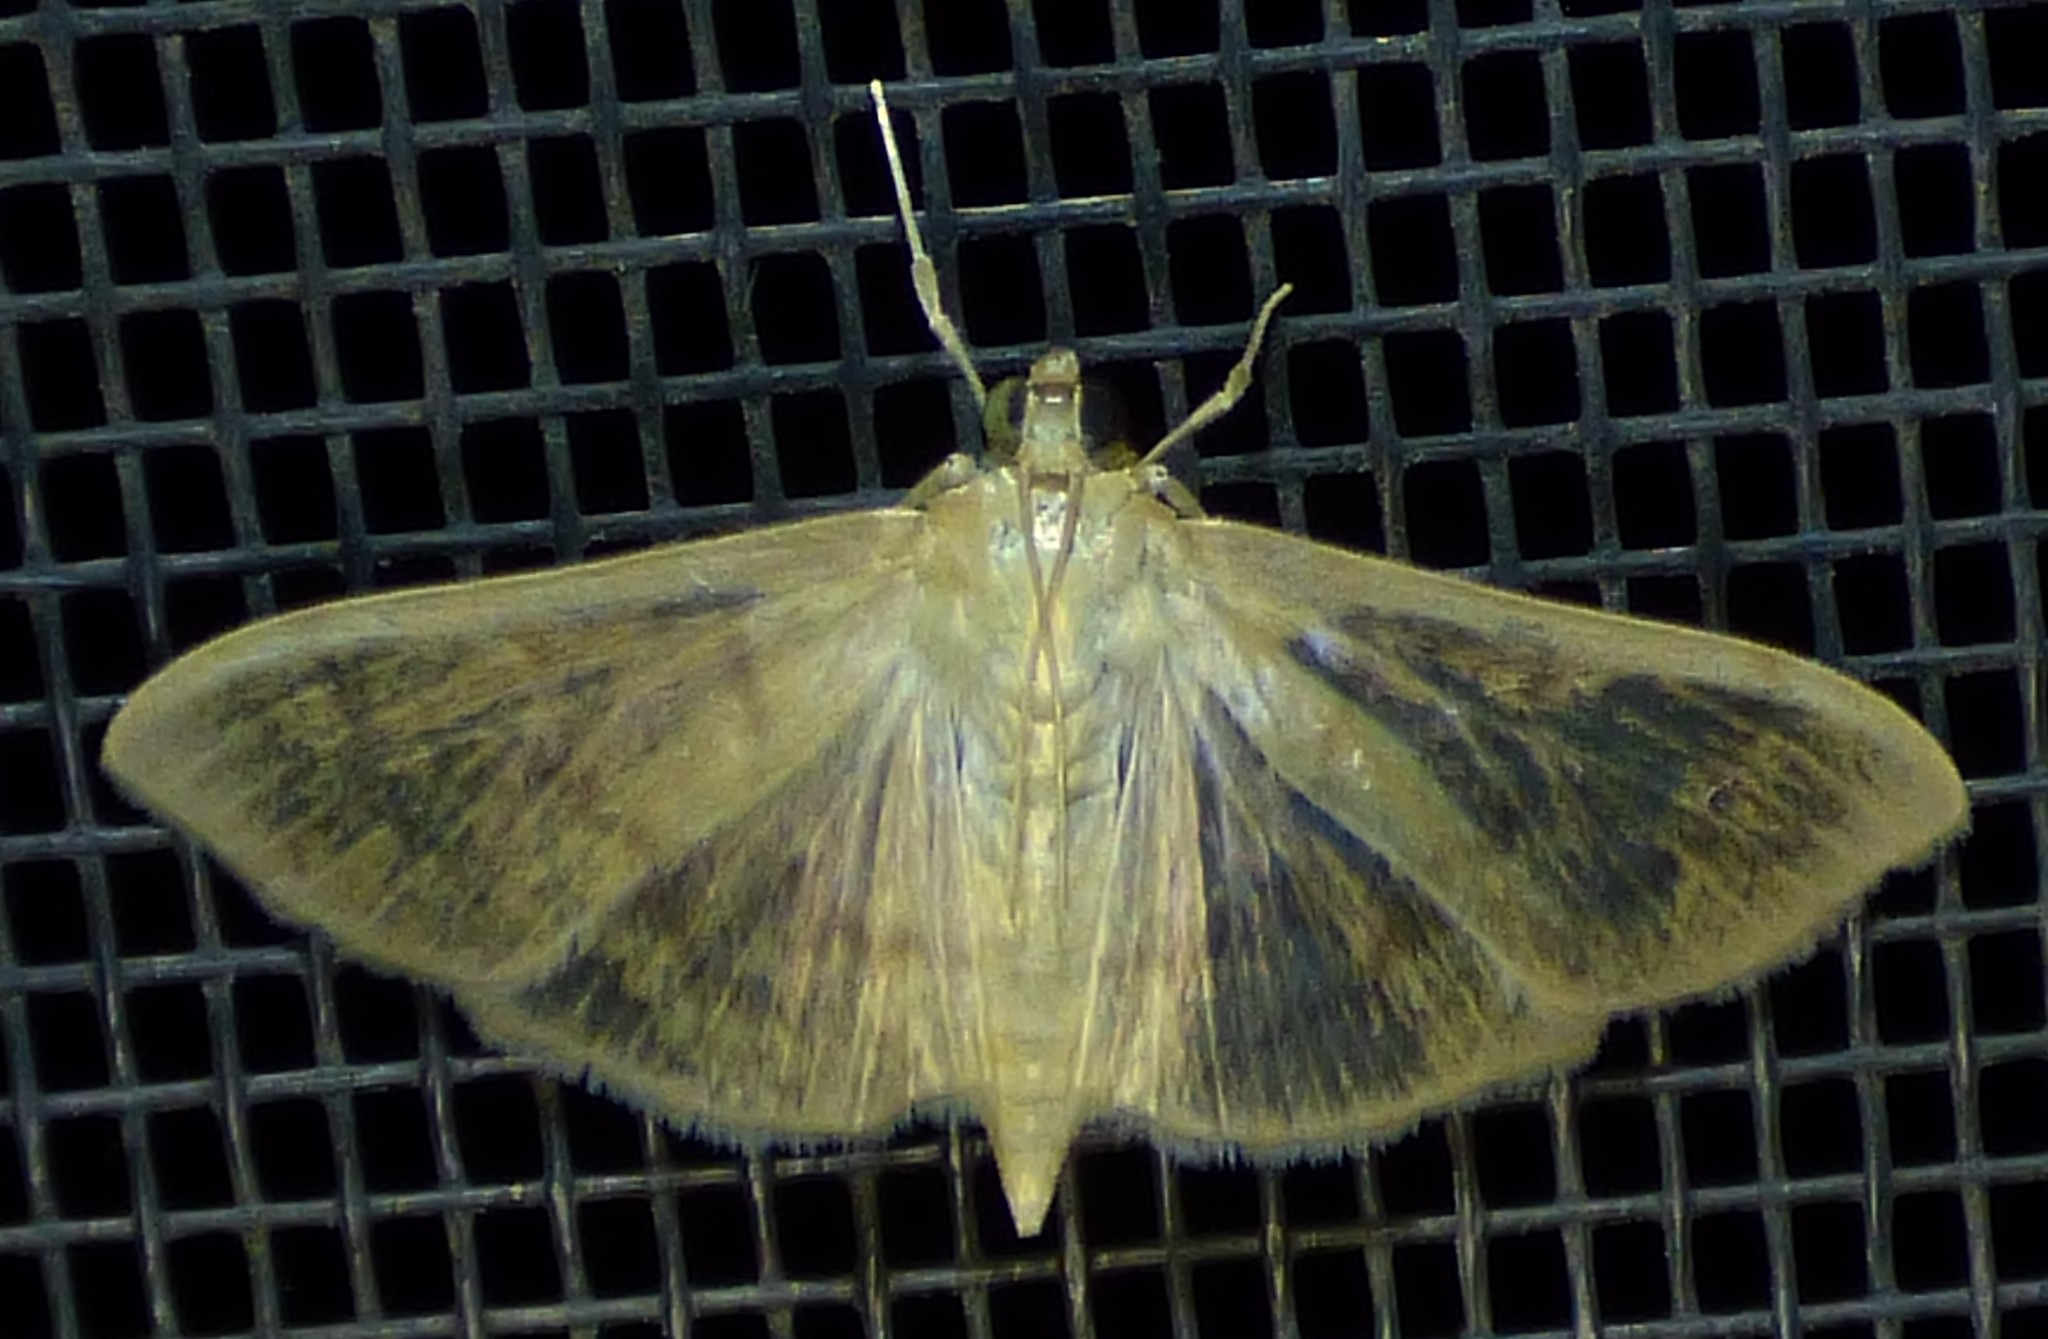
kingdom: Animalia
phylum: Arthropoda
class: Insecta
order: Lepidoptera
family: Crambidae
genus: Pleuroptya
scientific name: Pleuroptya silicalis
